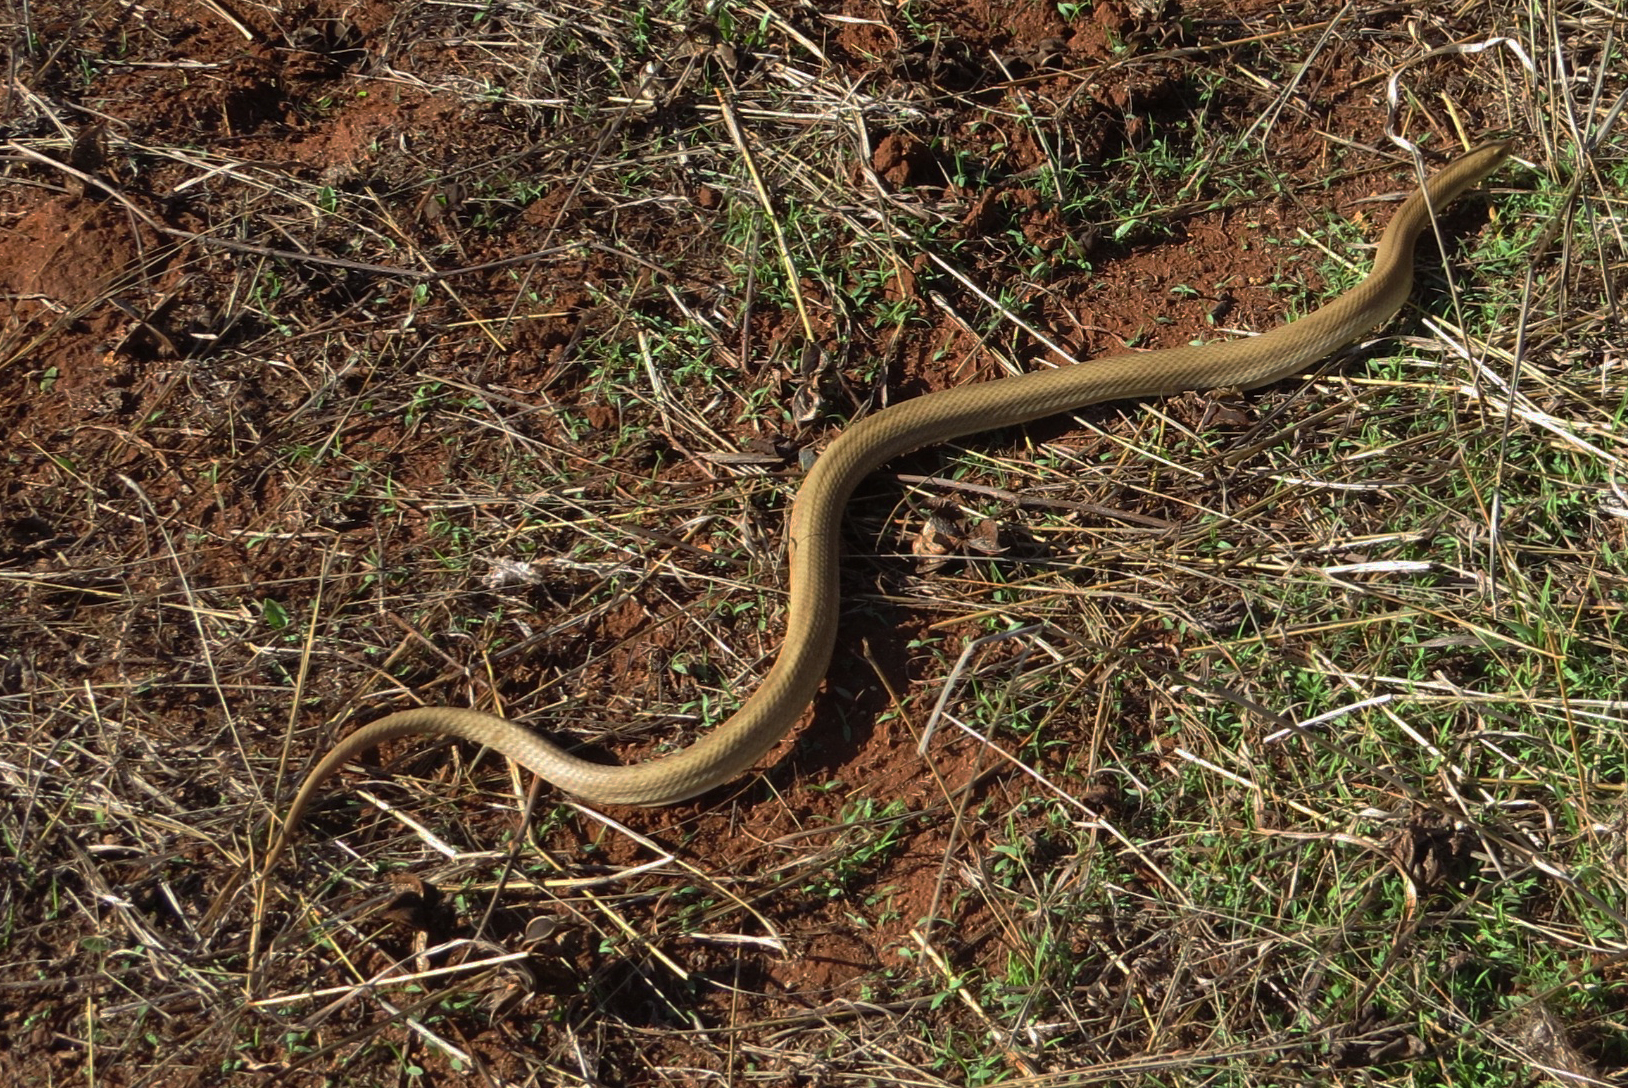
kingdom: Animalia
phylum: Chordata
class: Squamata
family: Pseudoxyrhophiidae
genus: Leioheterodon
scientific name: Leioheterodon modestus
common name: Blonde hognose snake
